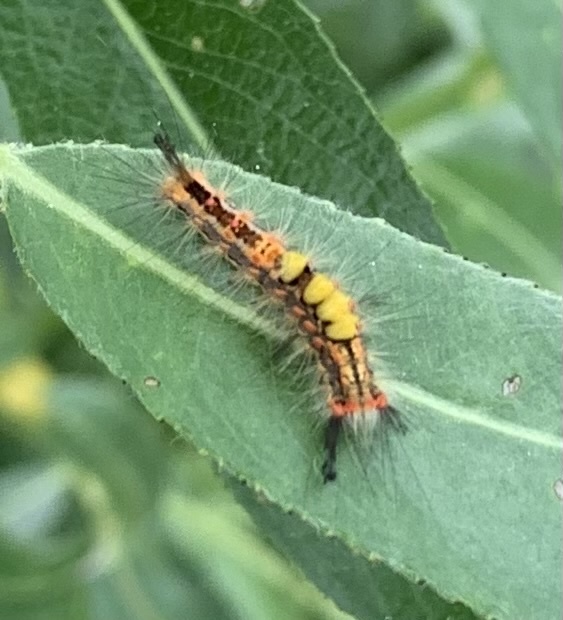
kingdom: Animalia
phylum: Arthropoda
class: Insecta
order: Lepidoptera
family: Erebidae
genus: Orgyia
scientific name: Orgyia antiqua
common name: Vapourer
